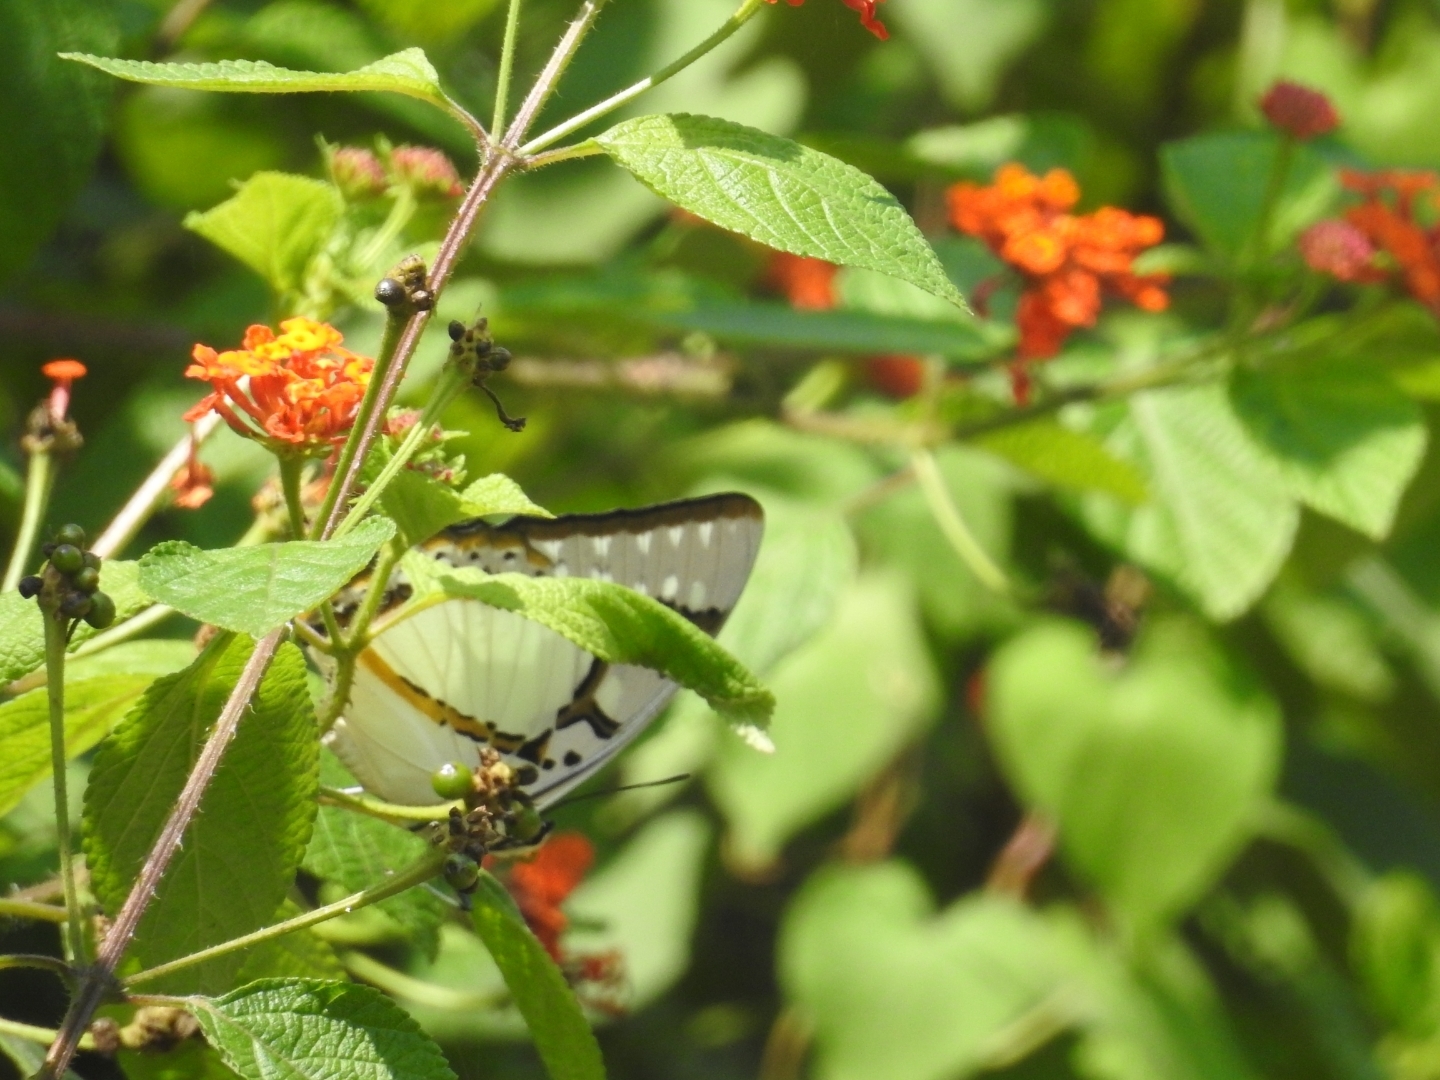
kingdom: Animalia
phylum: Arthropoda
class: Insecta
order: Lepidoptera
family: Nymphalidae
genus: Polyura
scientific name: Polyura eudamippus
